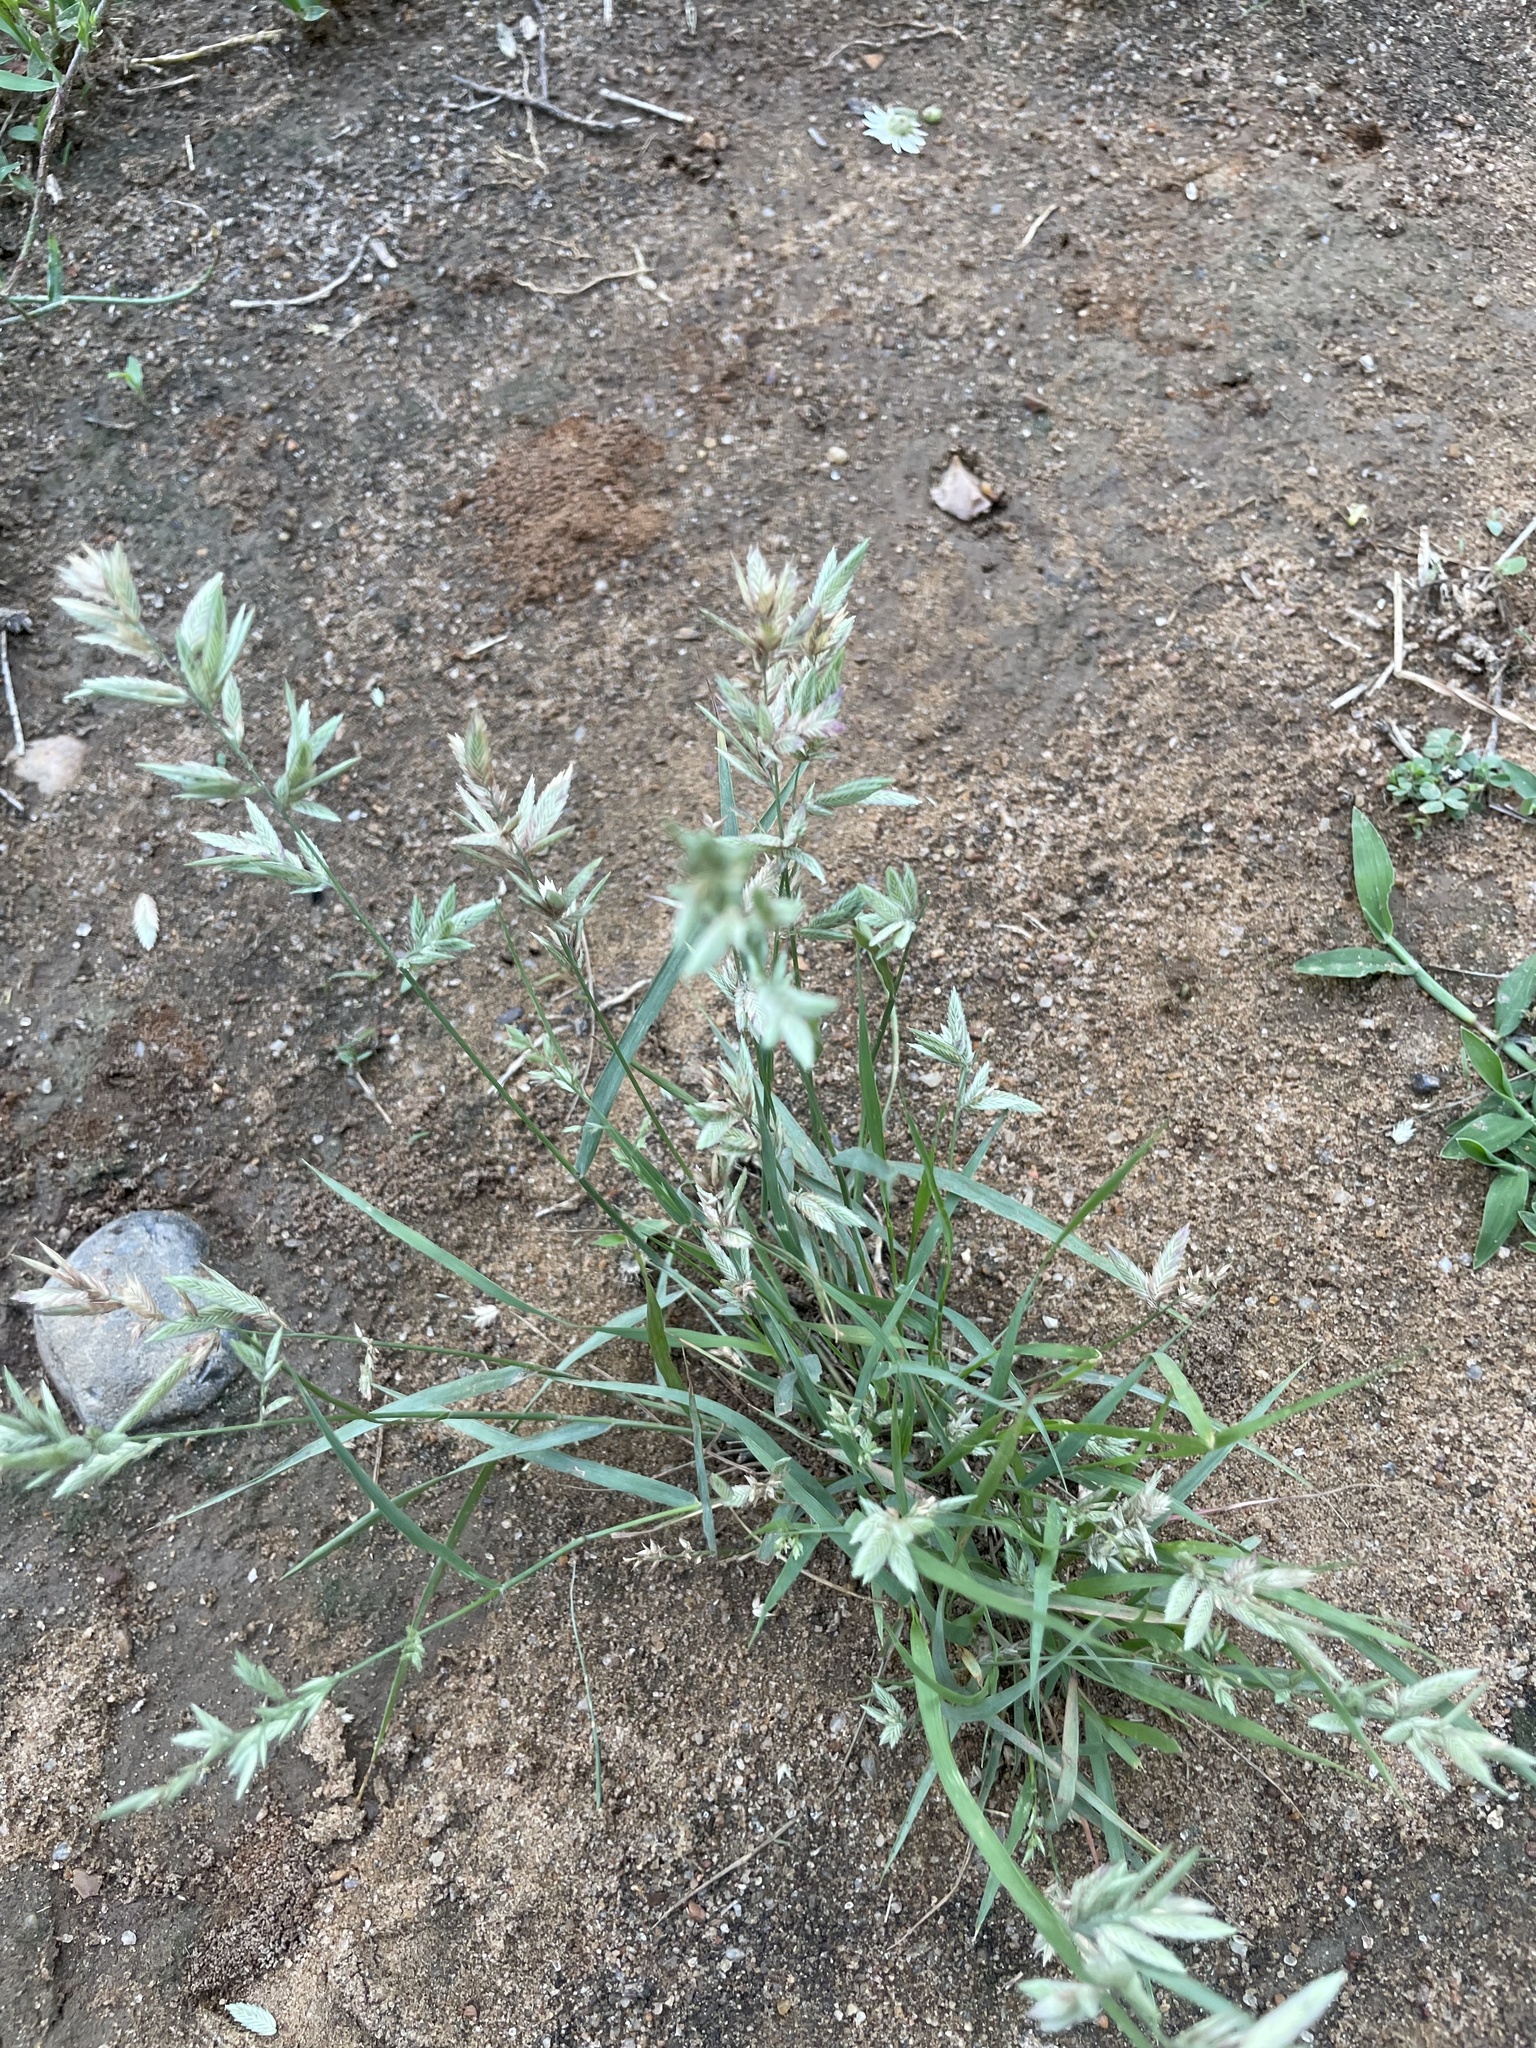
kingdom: Plantae
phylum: Tracheophyta
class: Liliopsida
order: Poales
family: Poaceae
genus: Eragrostis
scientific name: Eragrostis secundiflora
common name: Red love grass
